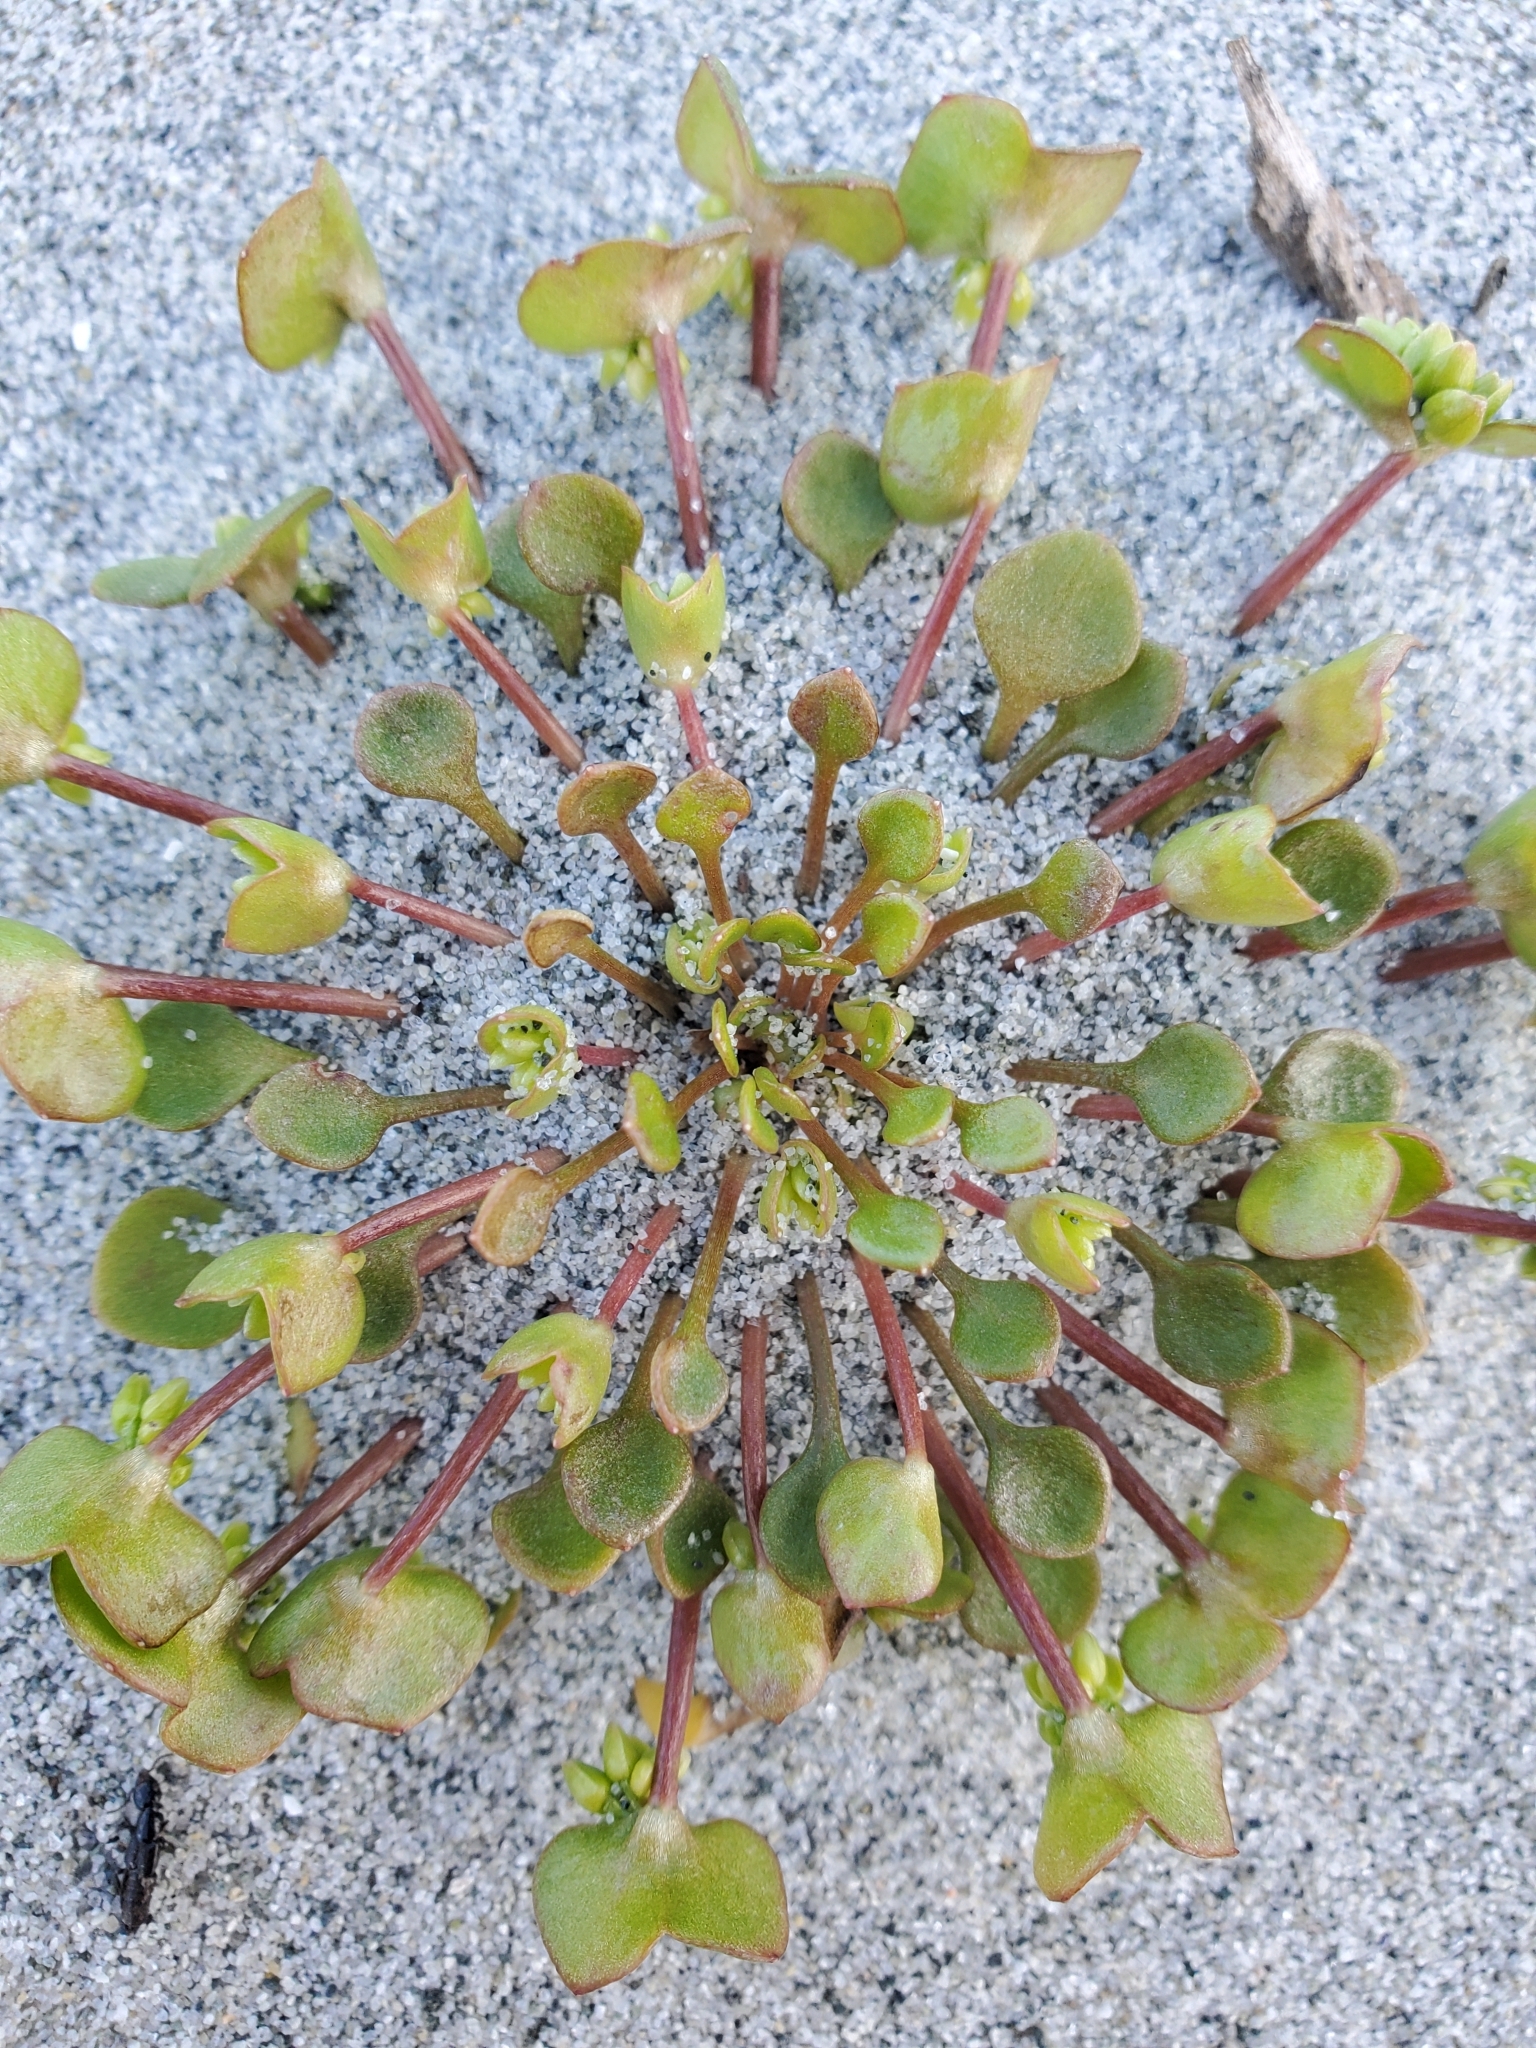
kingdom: Plantae
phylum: Tracheophyta
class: Magnoliopsida
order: Caryophyllales
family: Montiaceae
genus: Claytonia
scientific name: Claytonia rubra
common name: Erubescent miner's-lettuce
